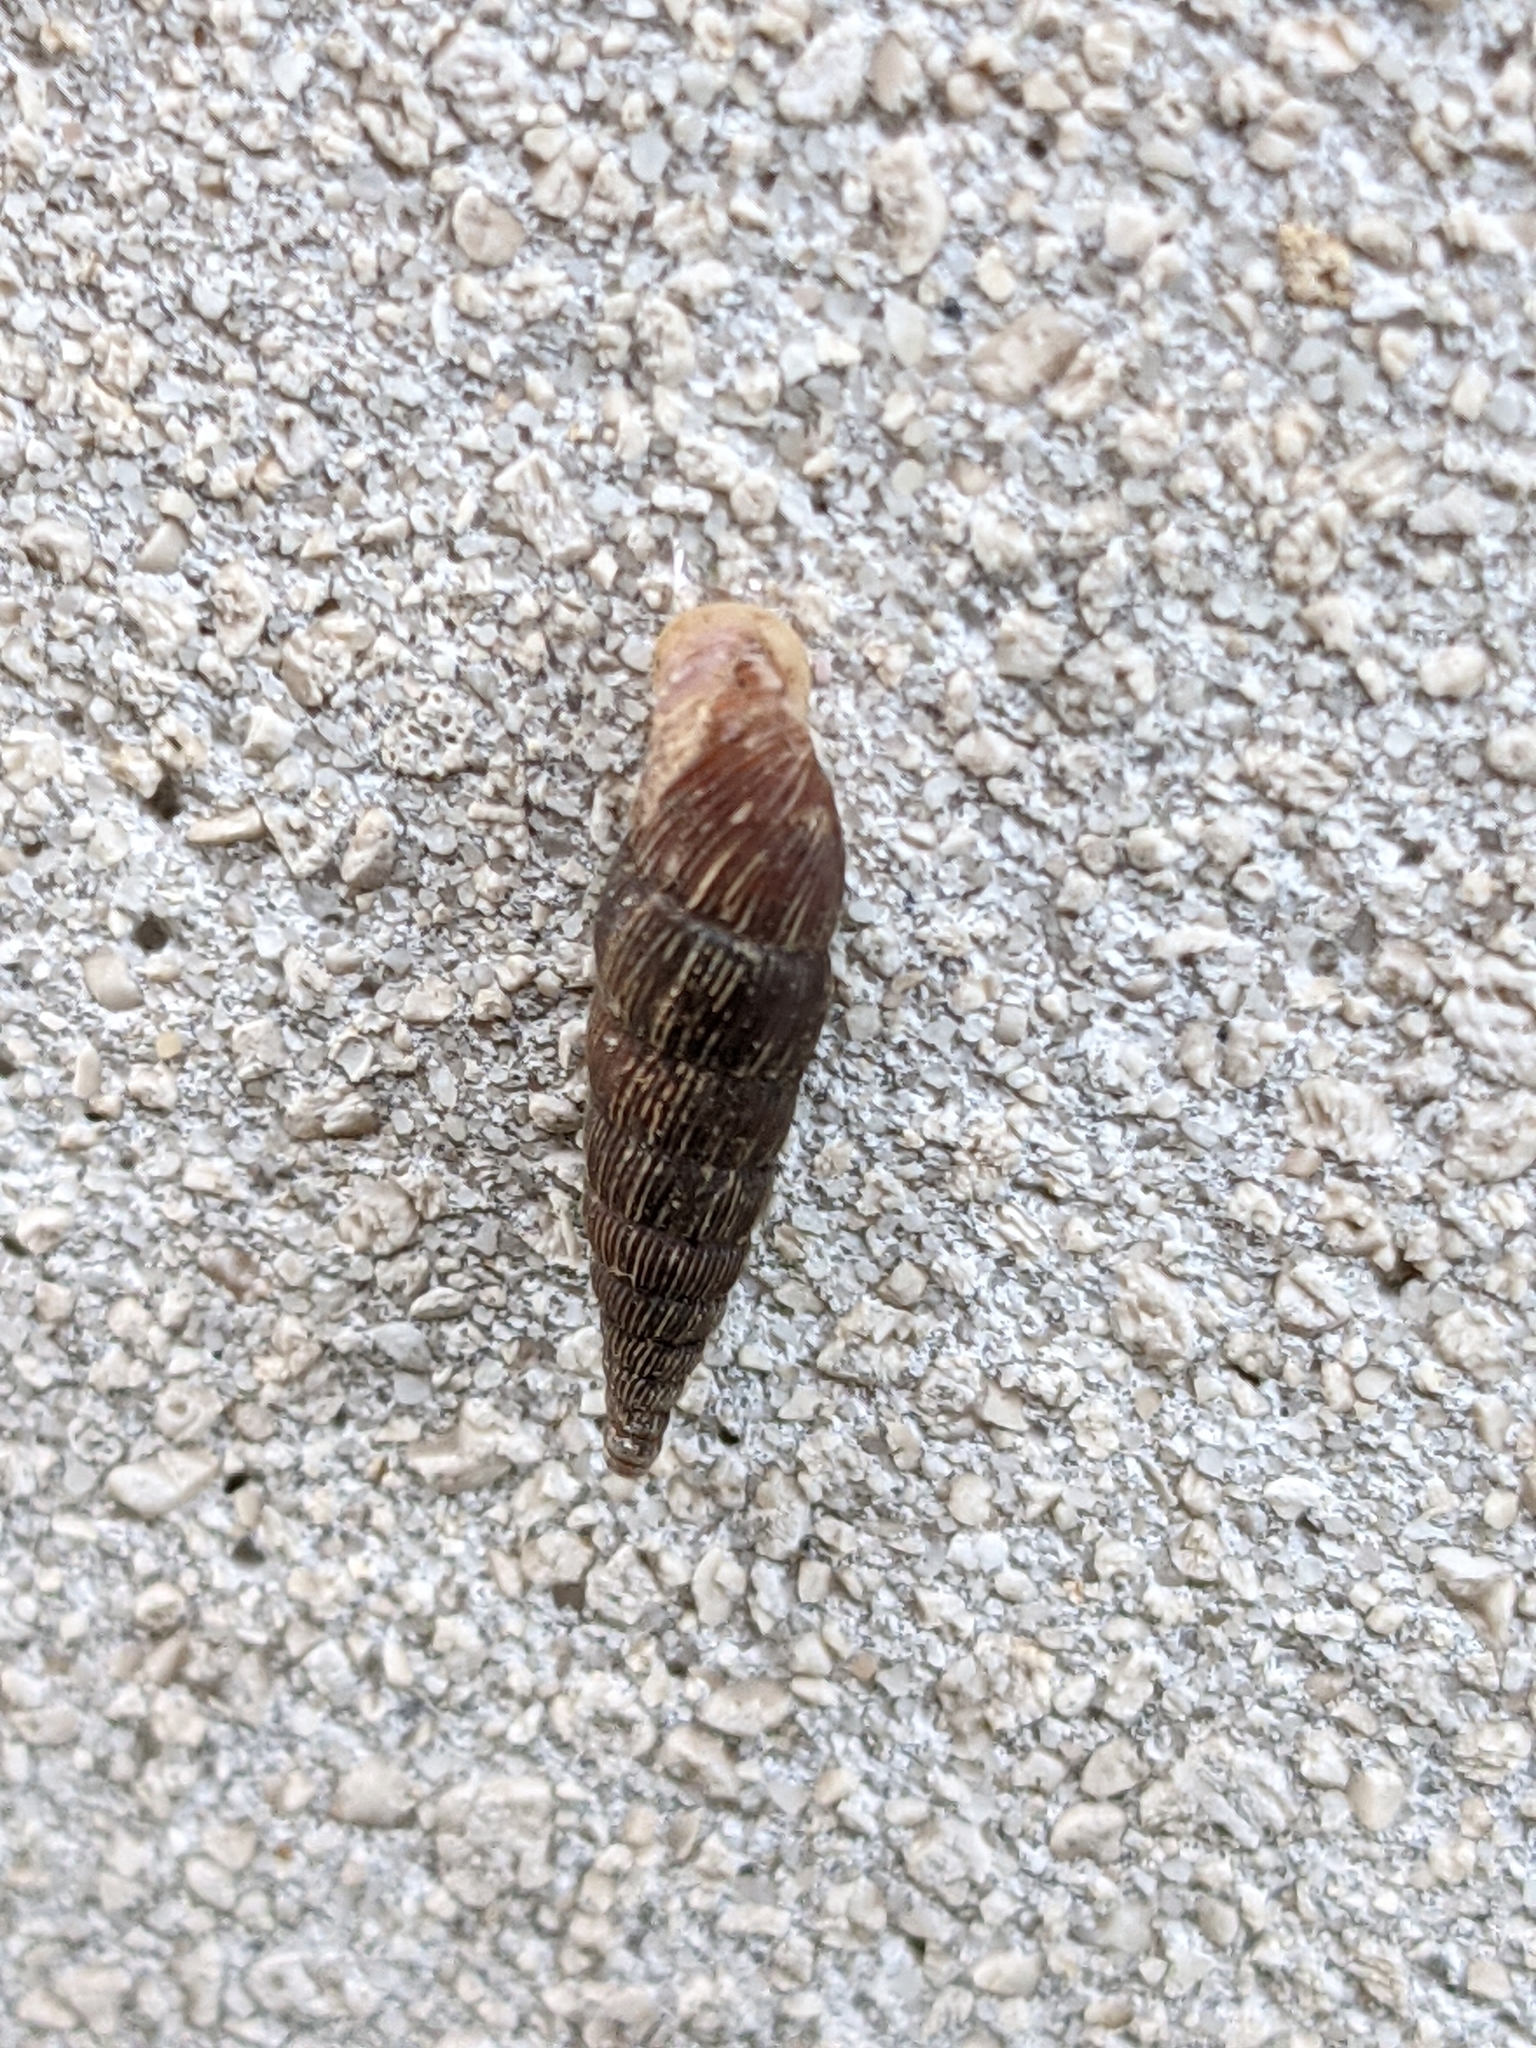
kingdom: Animalia
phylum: Mollusca
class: Gastropoda
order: Stylommatophora
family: Clausiliidae
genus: Alinda
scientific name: Alinda biplicata
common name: Thames door snail
